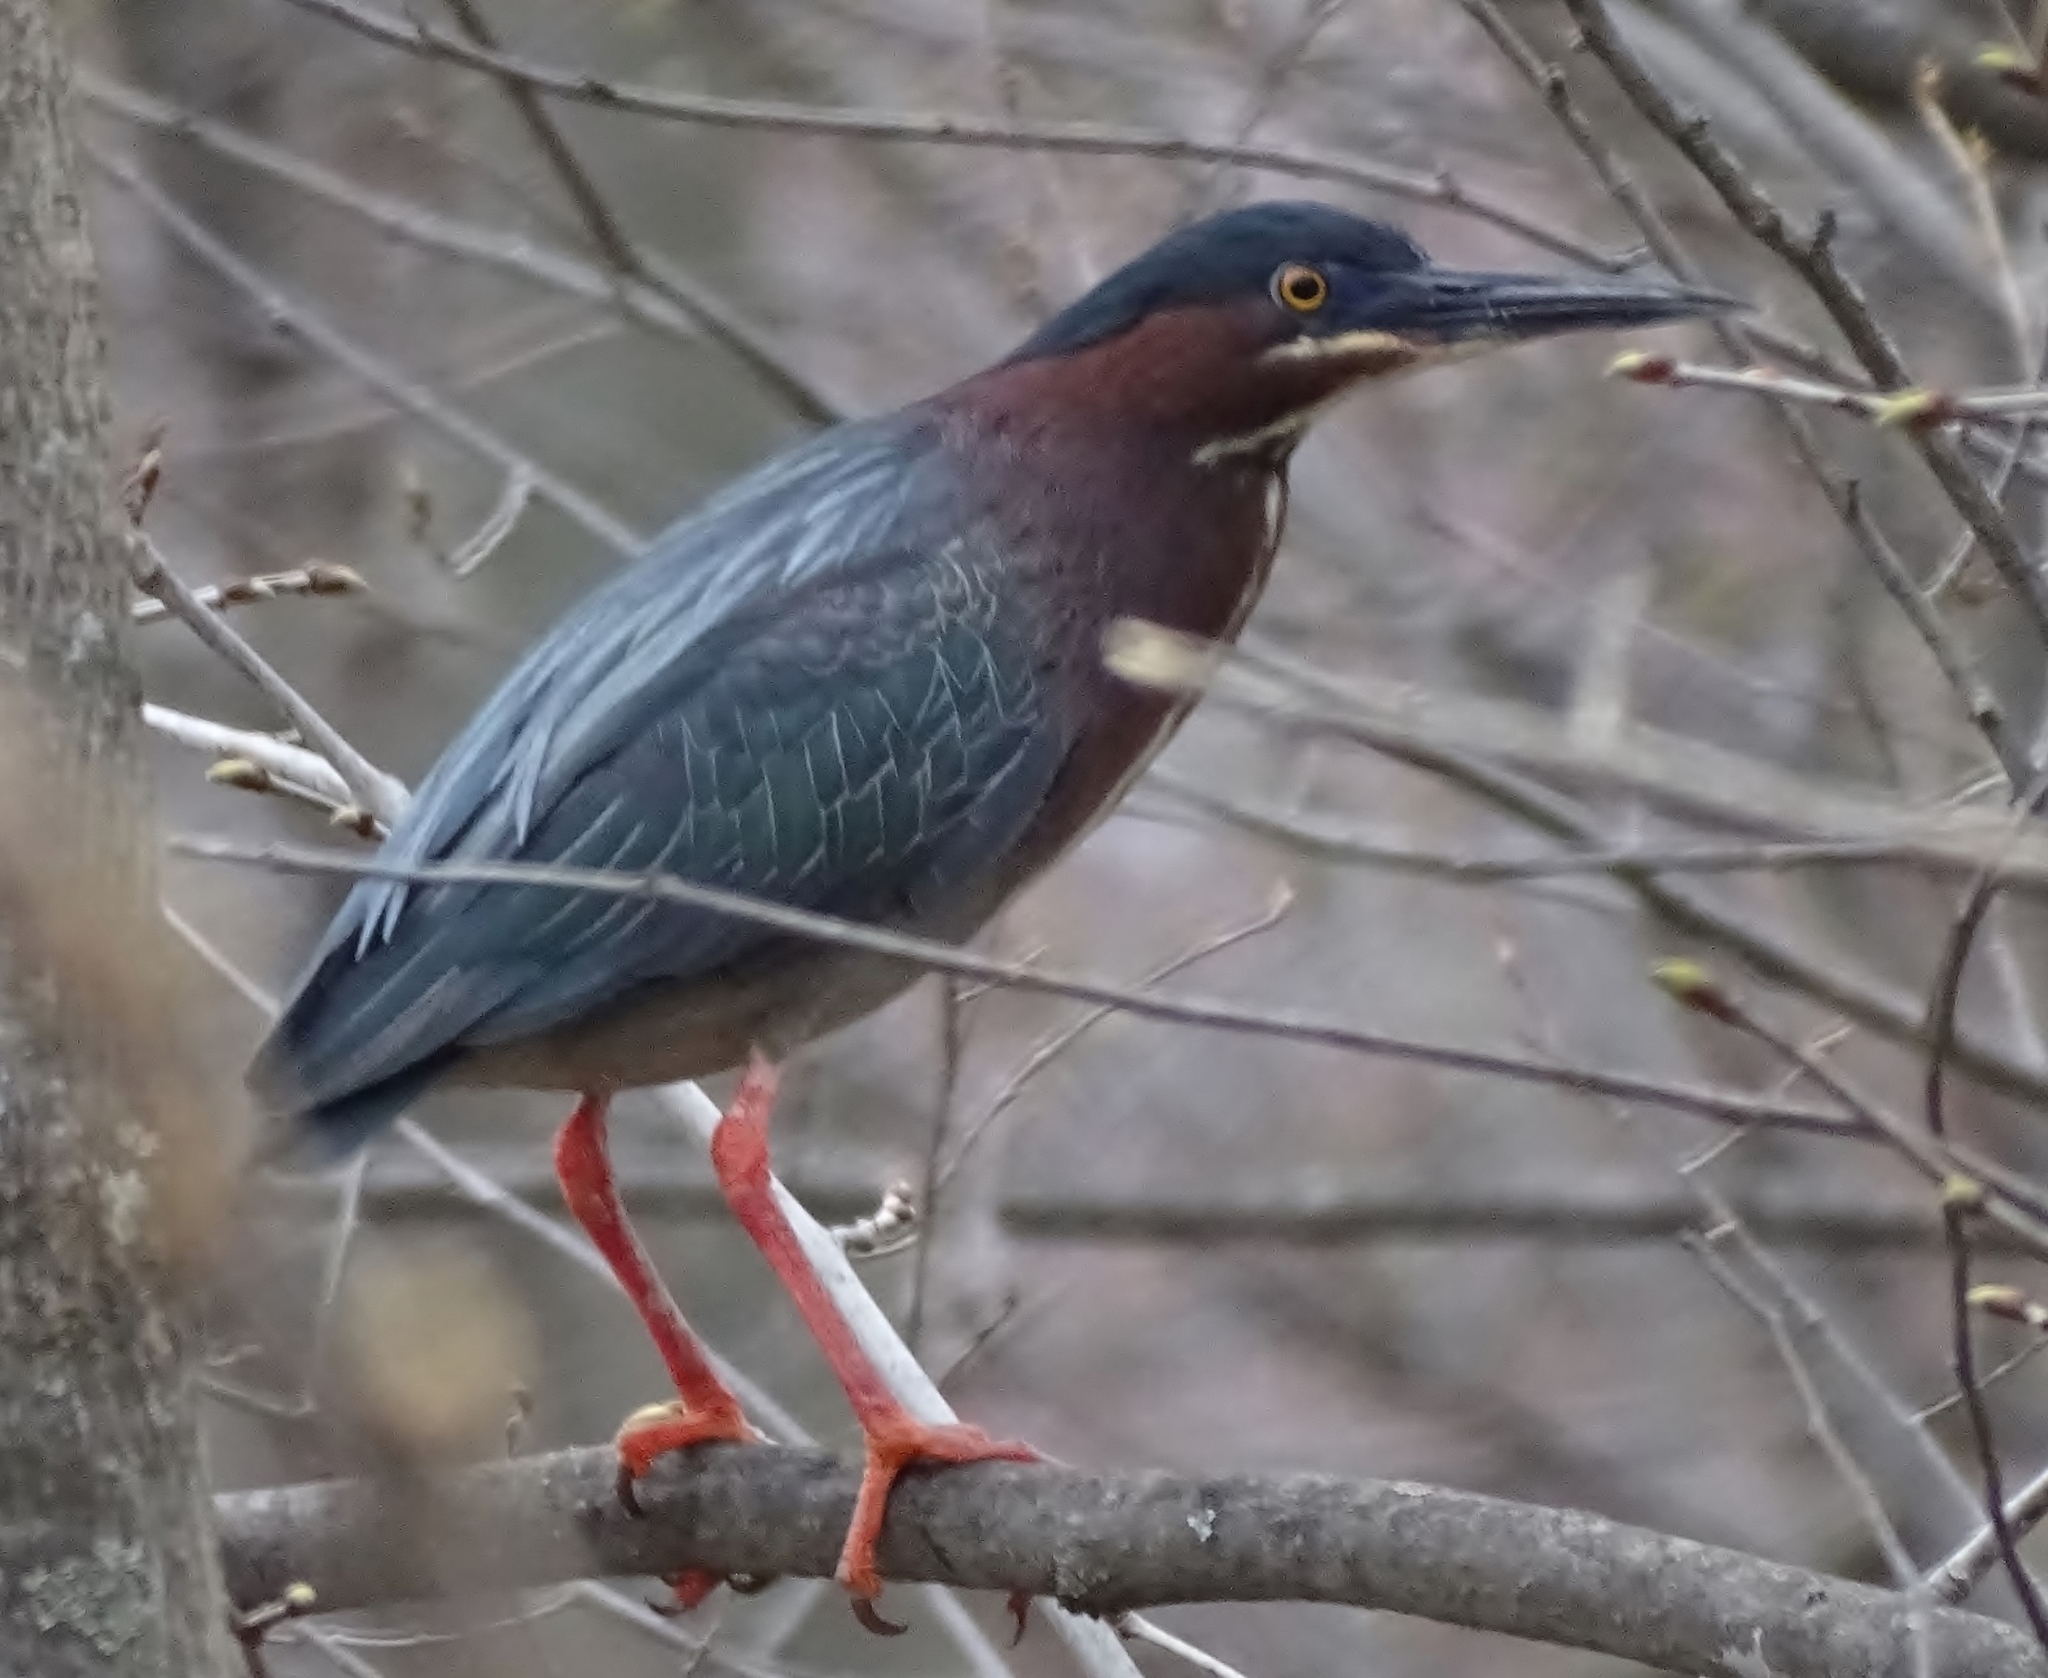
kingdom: Animalia
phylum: Chordata
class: Aves
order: Pelecaniformes
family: Ardeidae
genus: Butorides
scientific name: Butorides virescens
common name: Green heron
